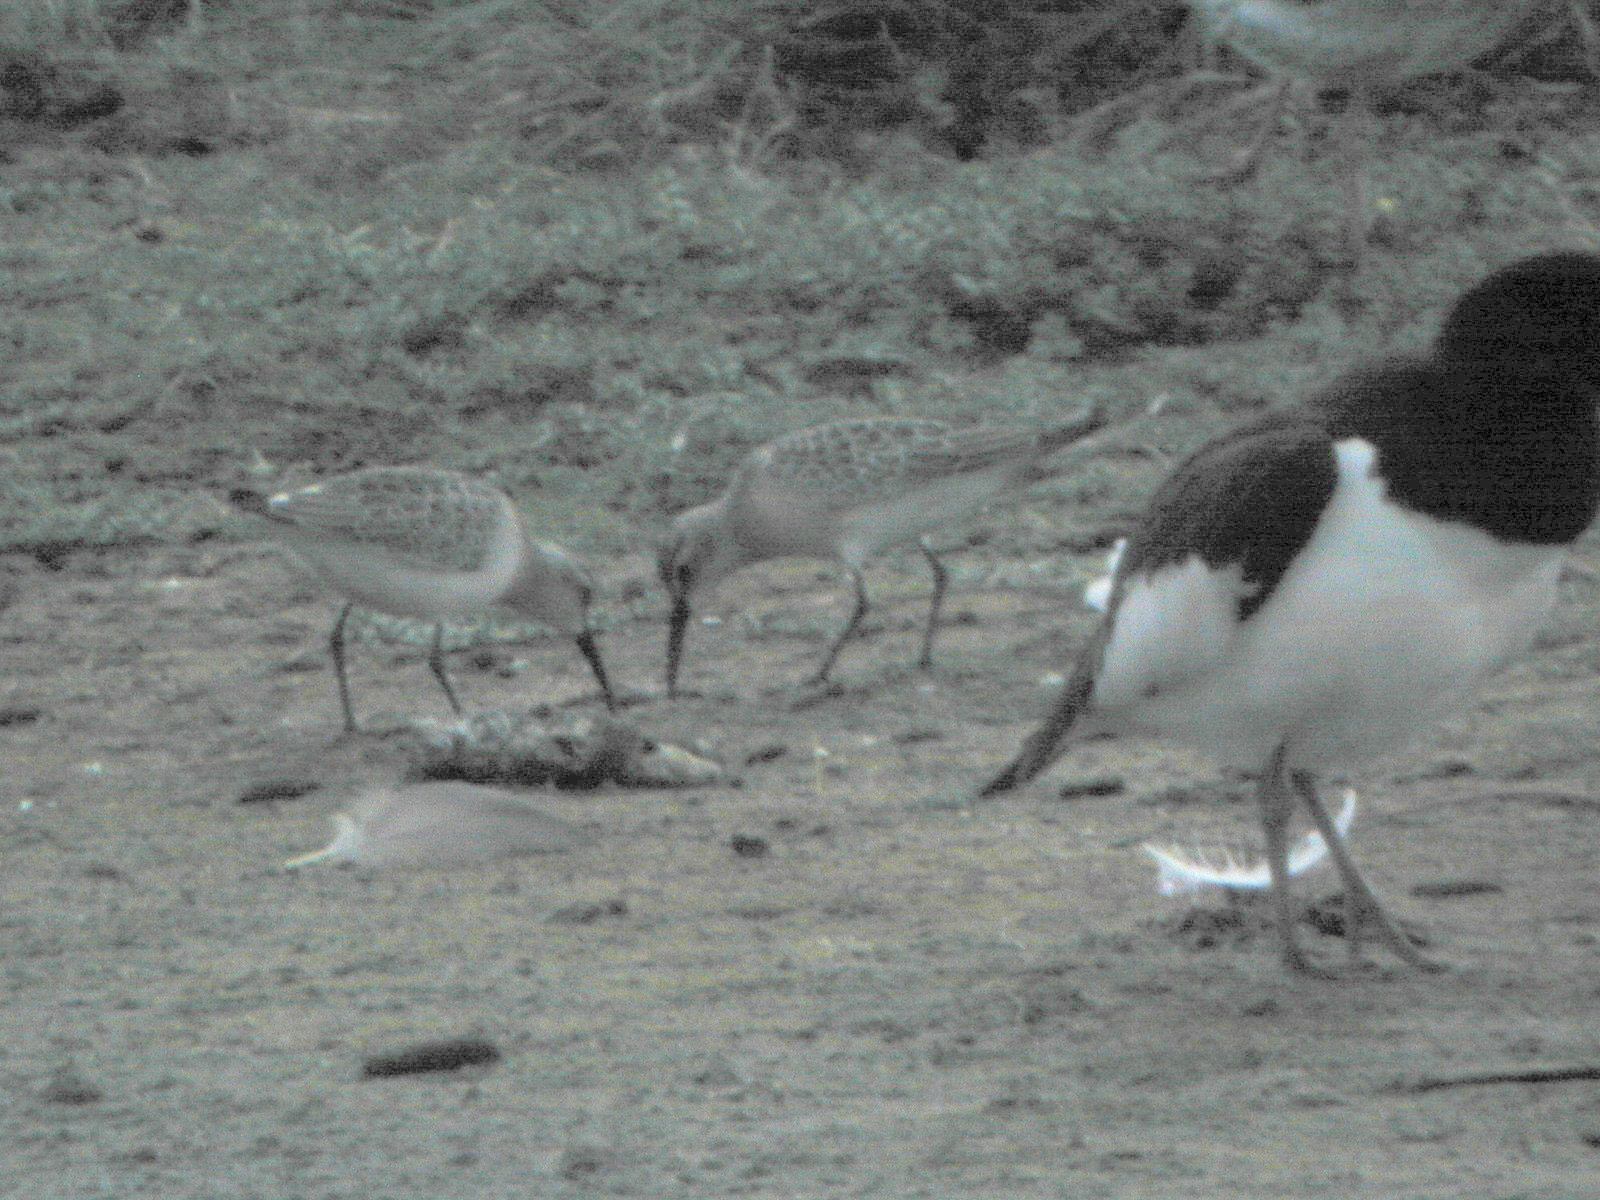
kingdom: Animalia
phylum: Chordata
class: Aves
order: Charadriiformes
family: Scolopacidae
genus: Calidris
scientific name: Calidris ferruginea
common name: Curlew sandpiper
